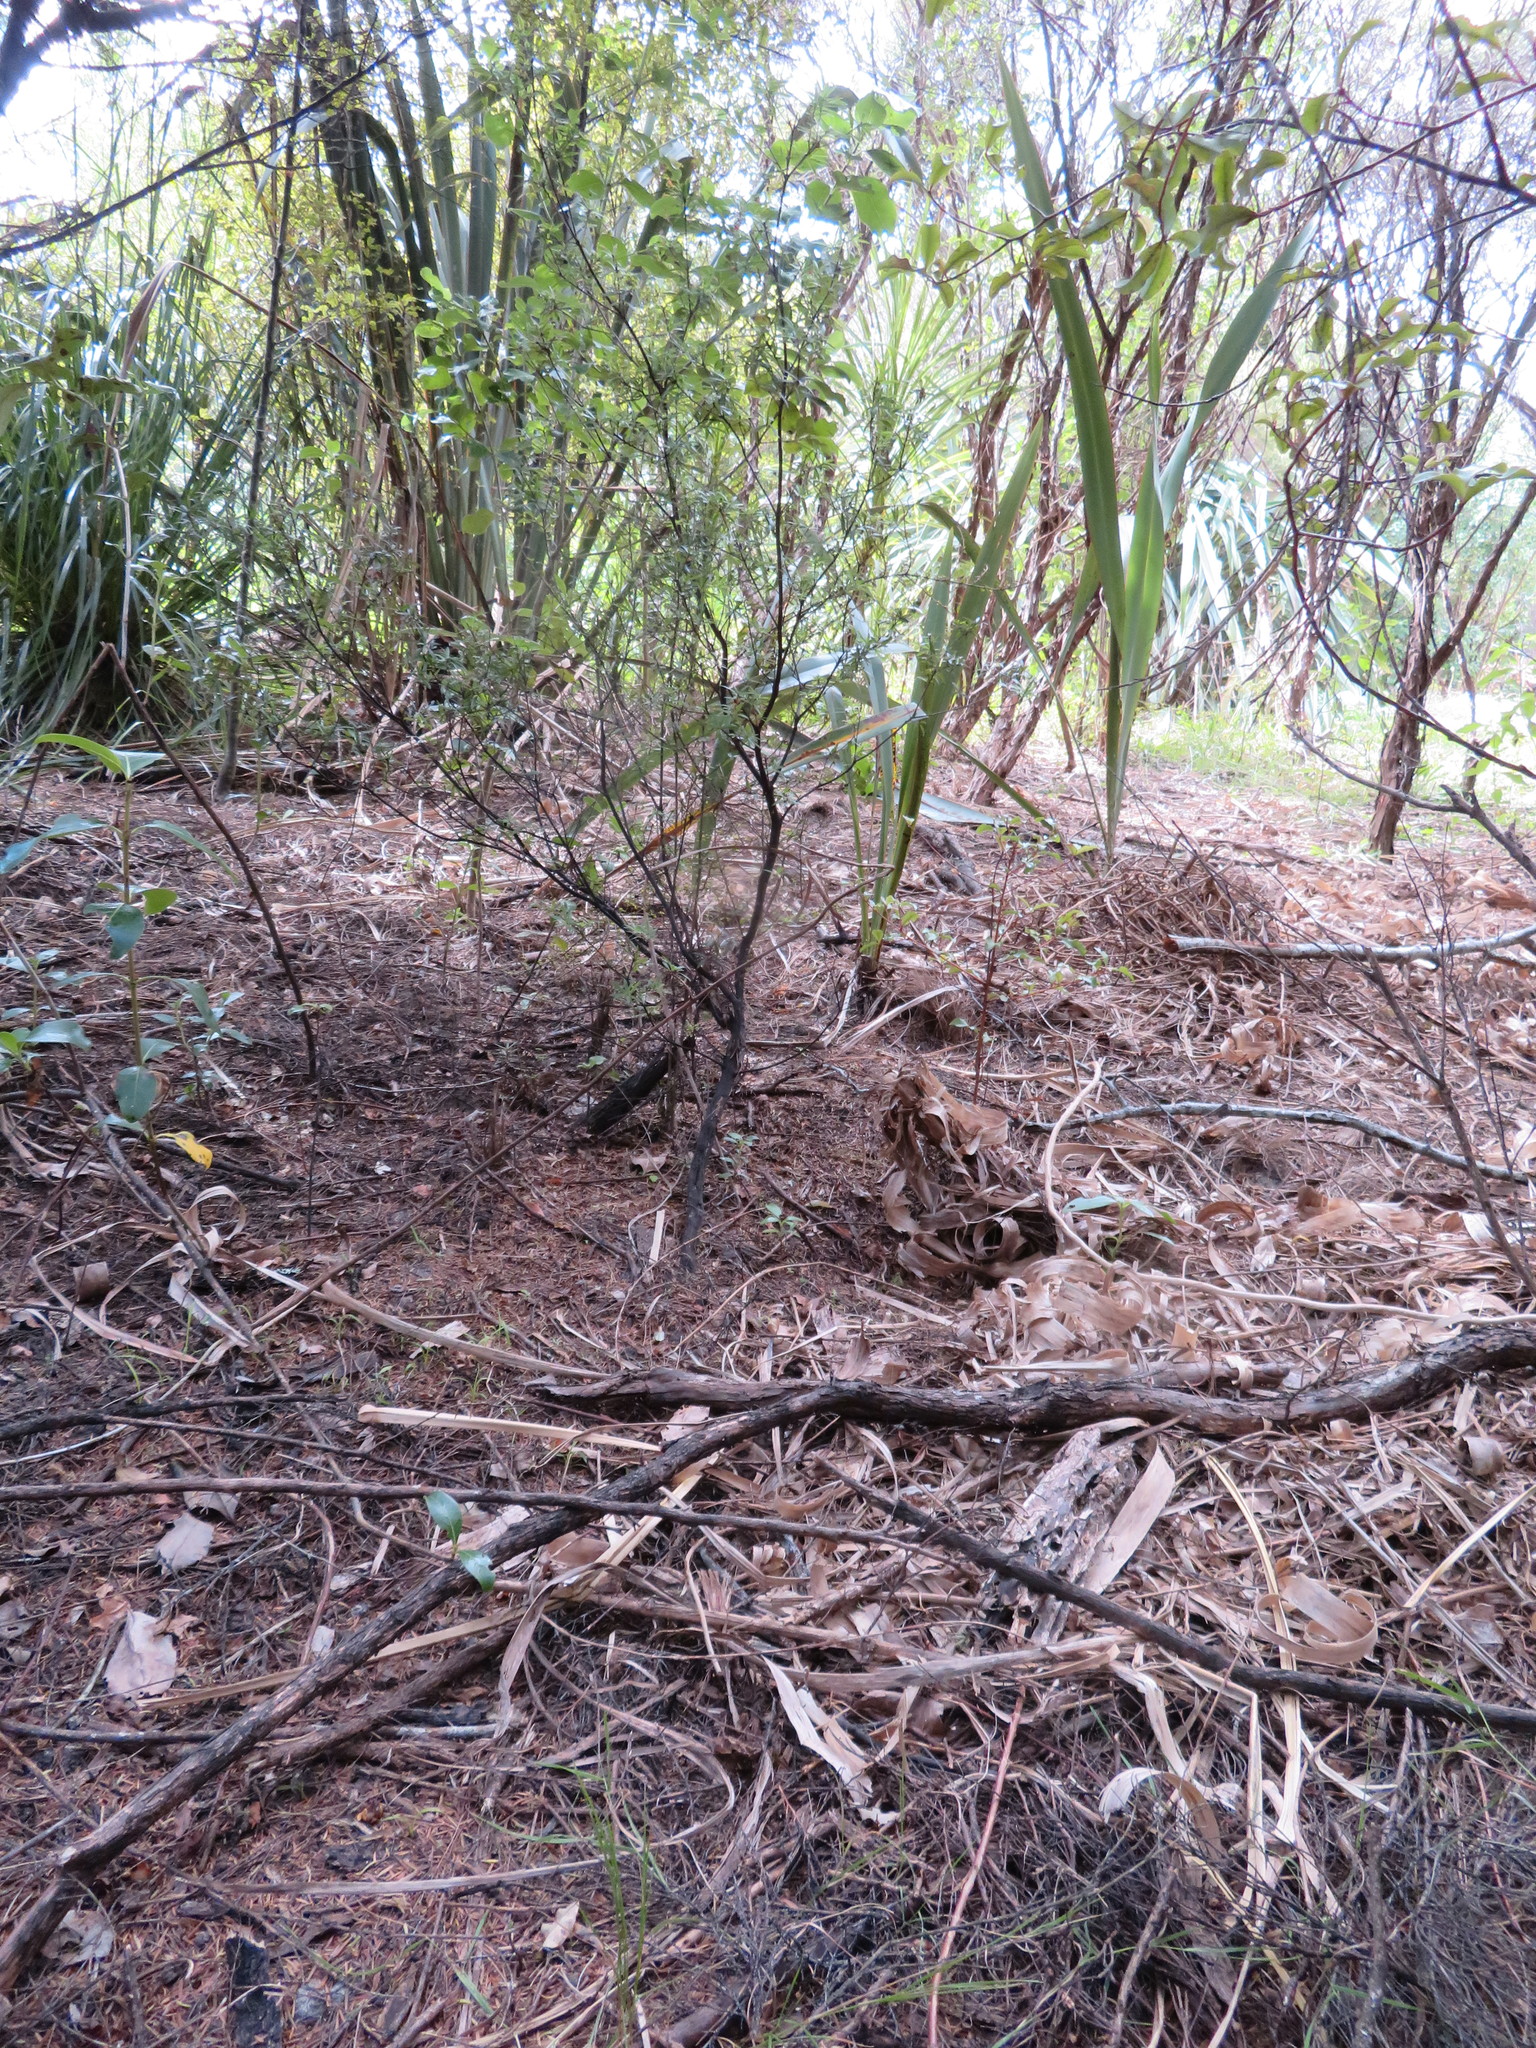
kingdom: Plantae
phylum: Tracheophyta
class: Liliopsida
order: Poales
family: Poaceae
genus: Cortaderia
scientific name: Cortaderia selloana
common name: Uruguayan pampas grass
